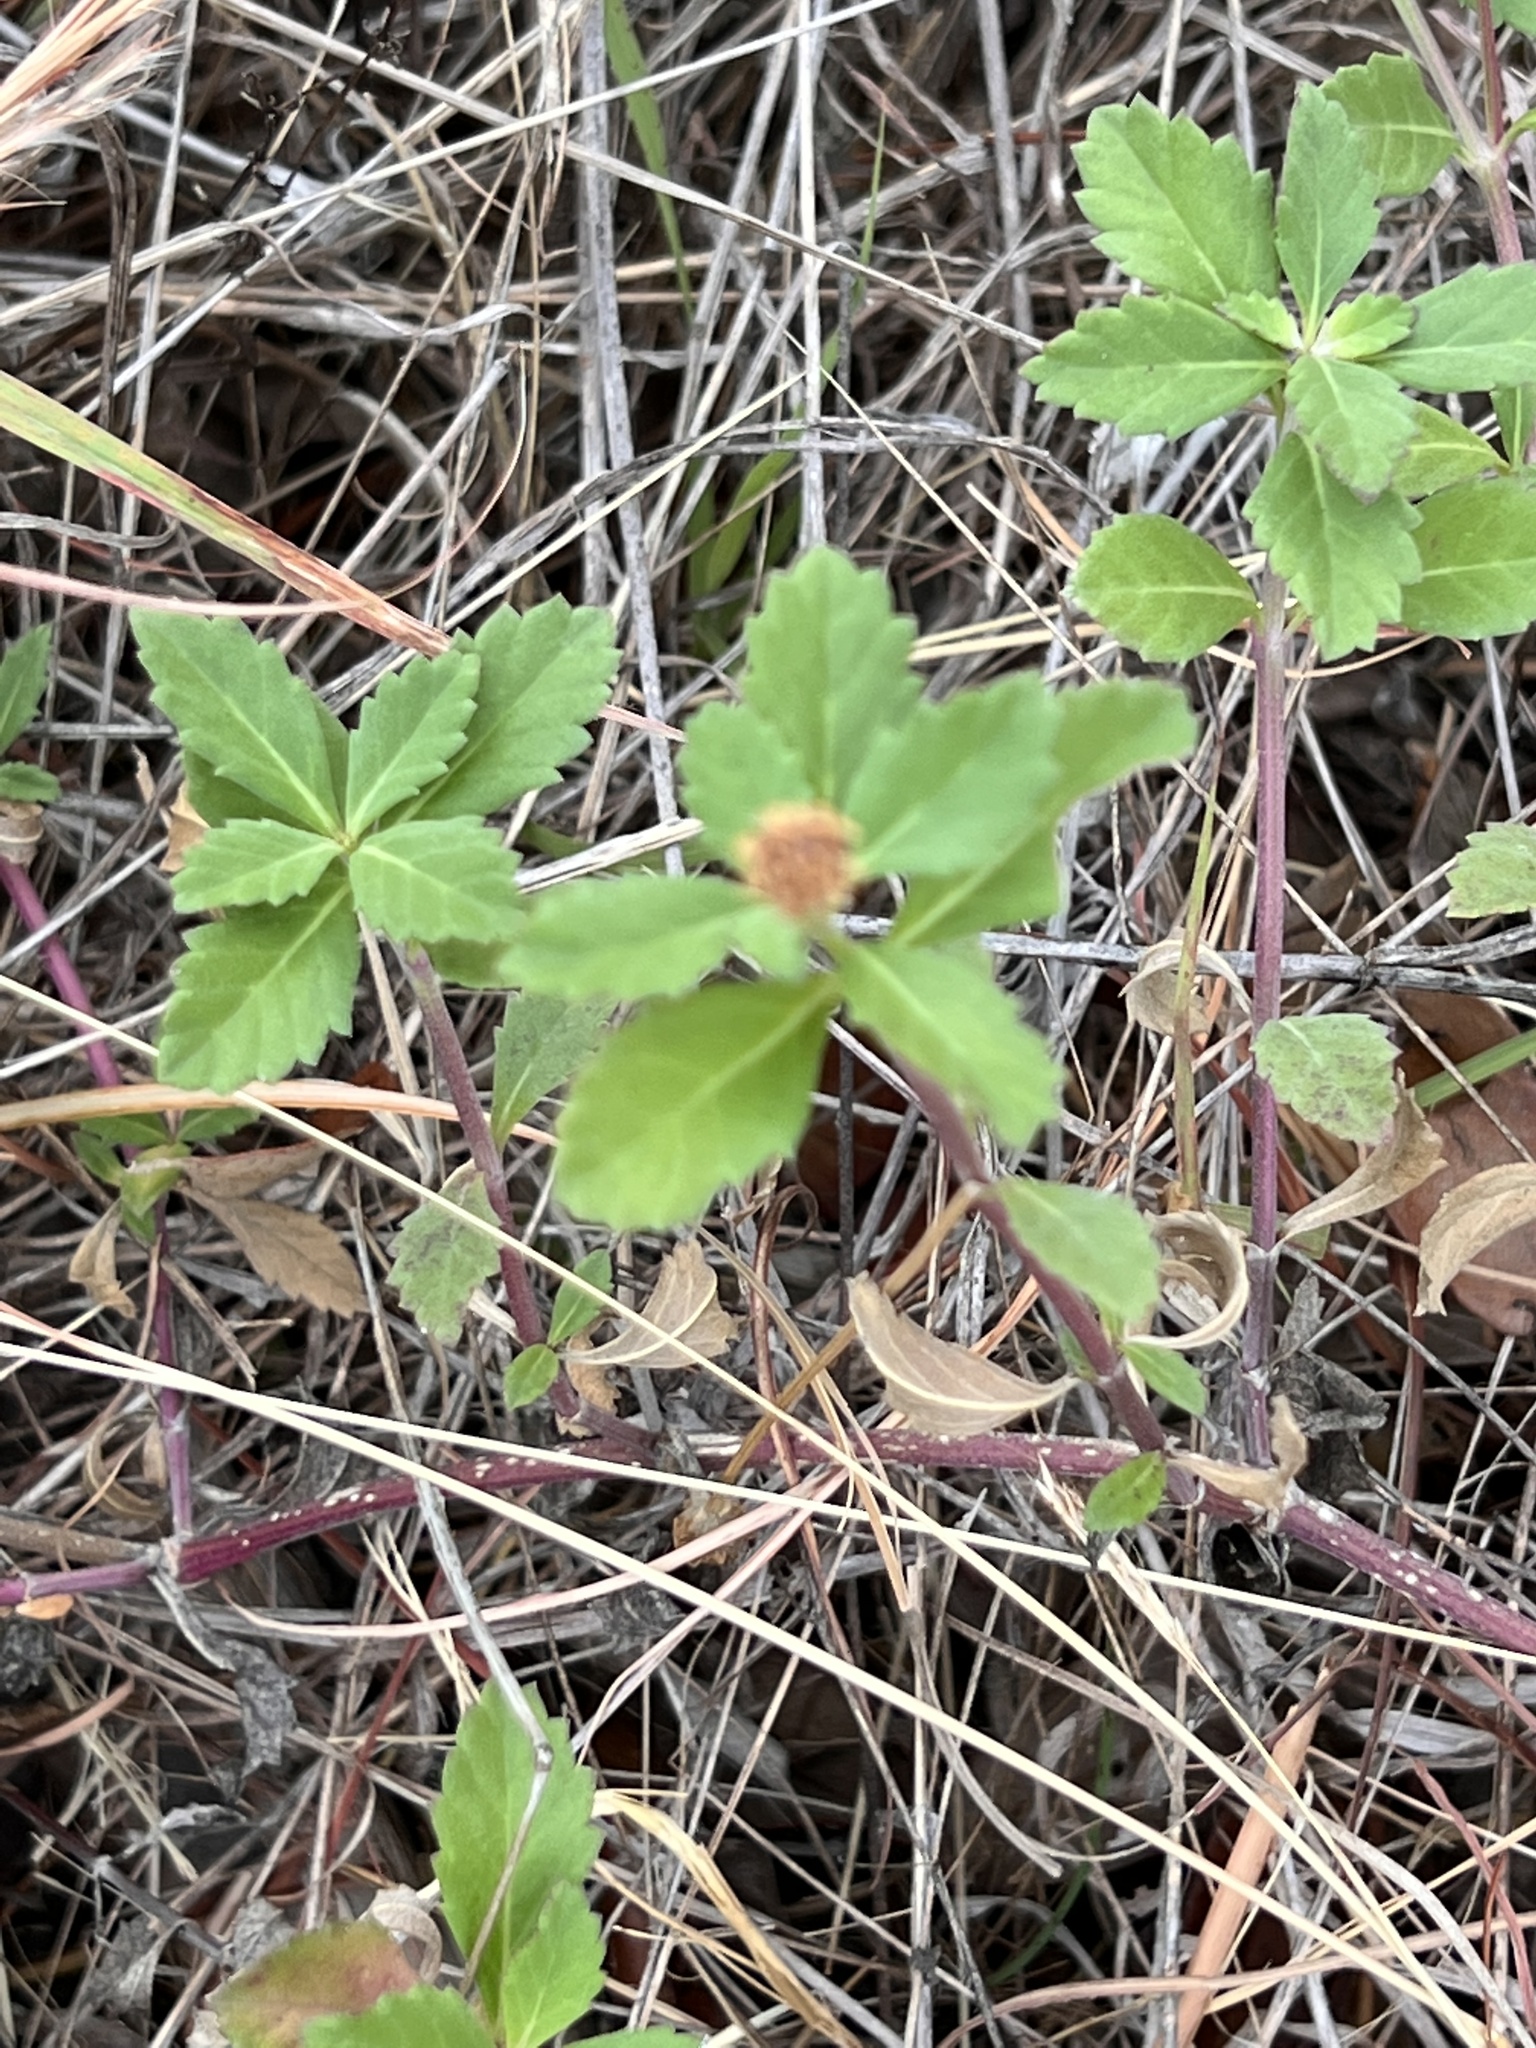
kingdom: Plantae
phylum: Tracheophyta
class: Magnoliopsida
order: Lamiales
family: Verbenaceae
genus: Phyla
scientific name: Phyla nodiflora
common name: Frogfruit
